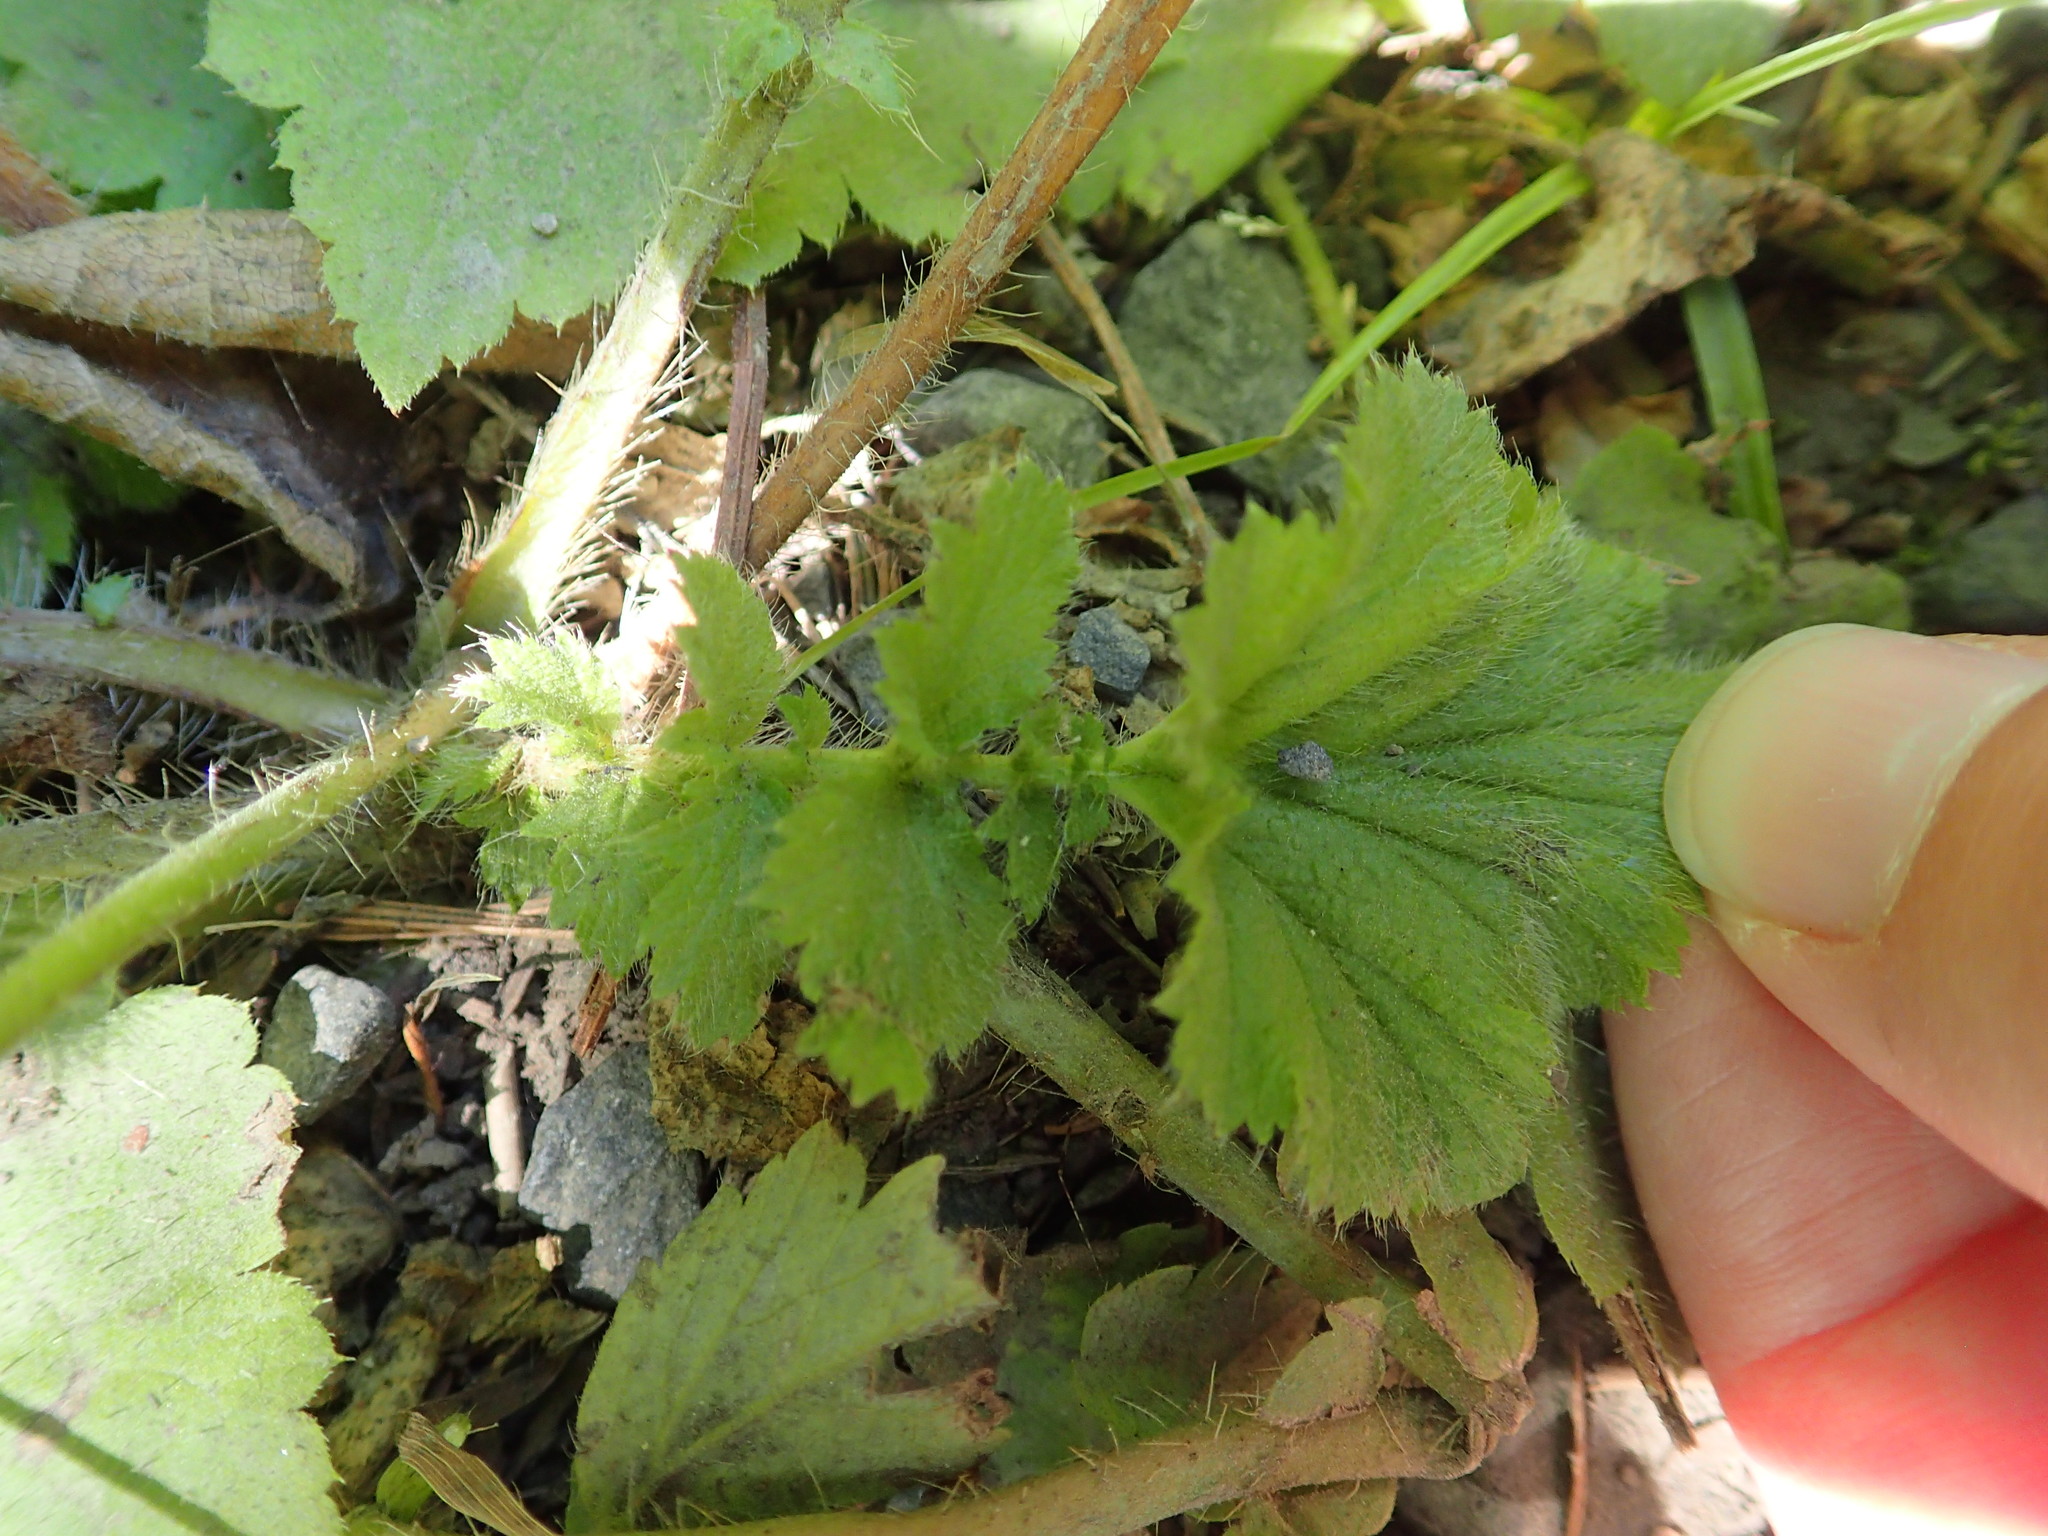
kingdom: Plantae
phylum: Tracheophyta
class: Magnoliopsida
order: Rosales
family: Rosaceae
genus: Geum
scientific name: Geum macrophyllum
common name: Large-leaved avens
